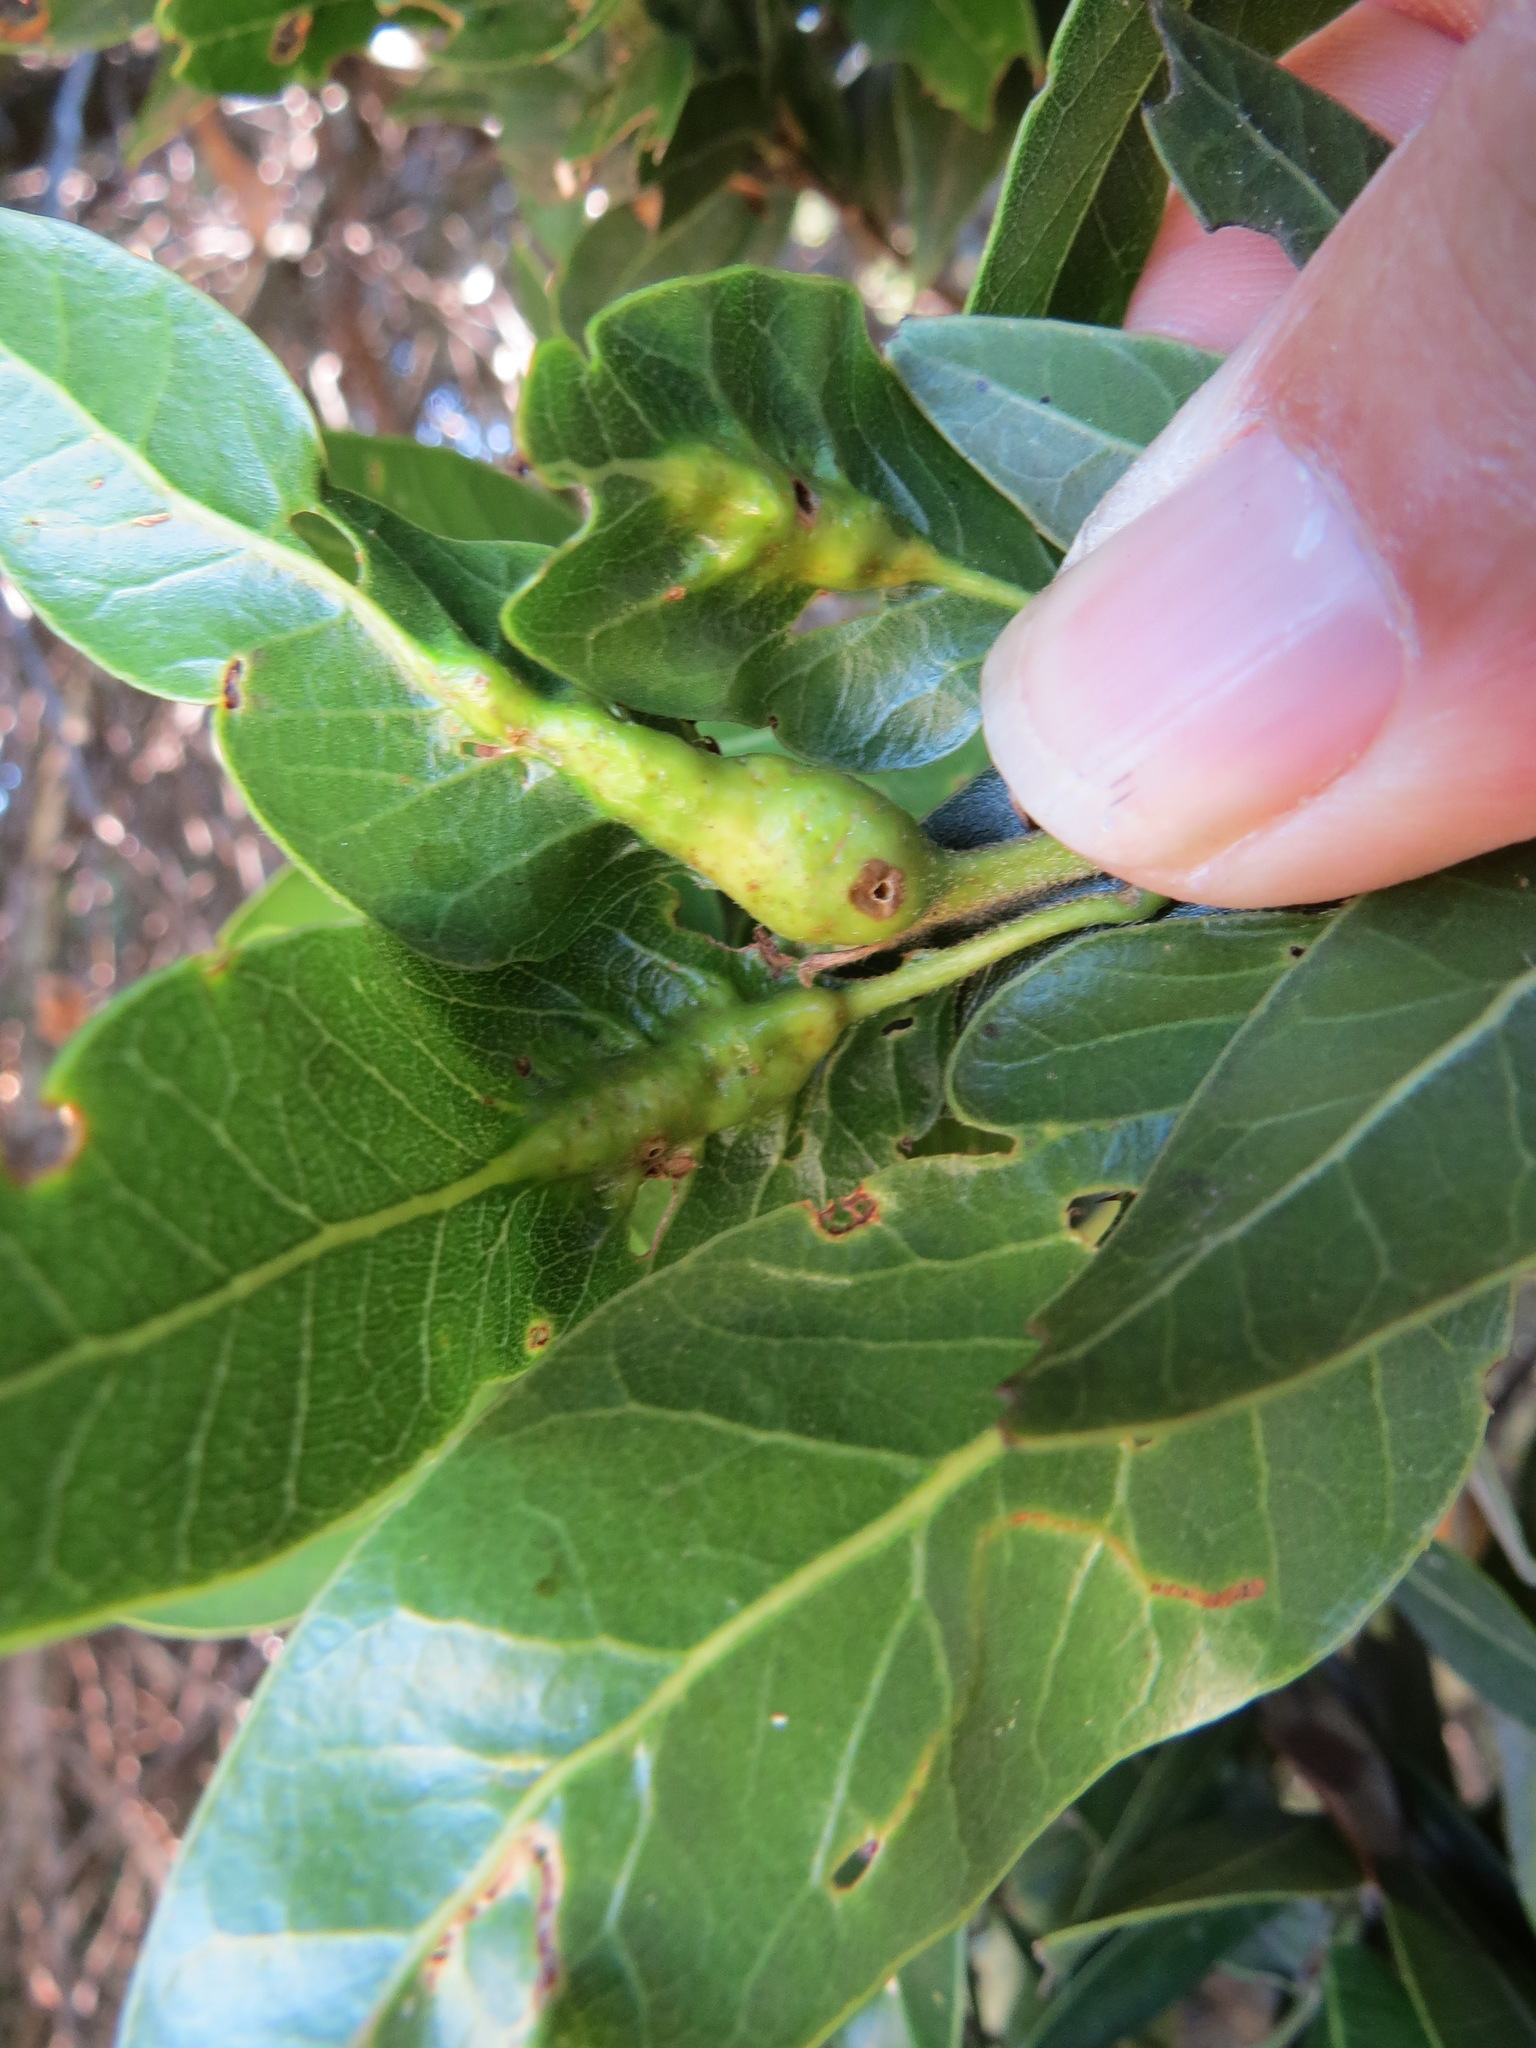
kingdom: Animalia
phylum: Arthropoda
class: Insecta
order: Hymenoptera
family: Cynipidae
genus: Melikaiella
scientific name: Melikaiella
